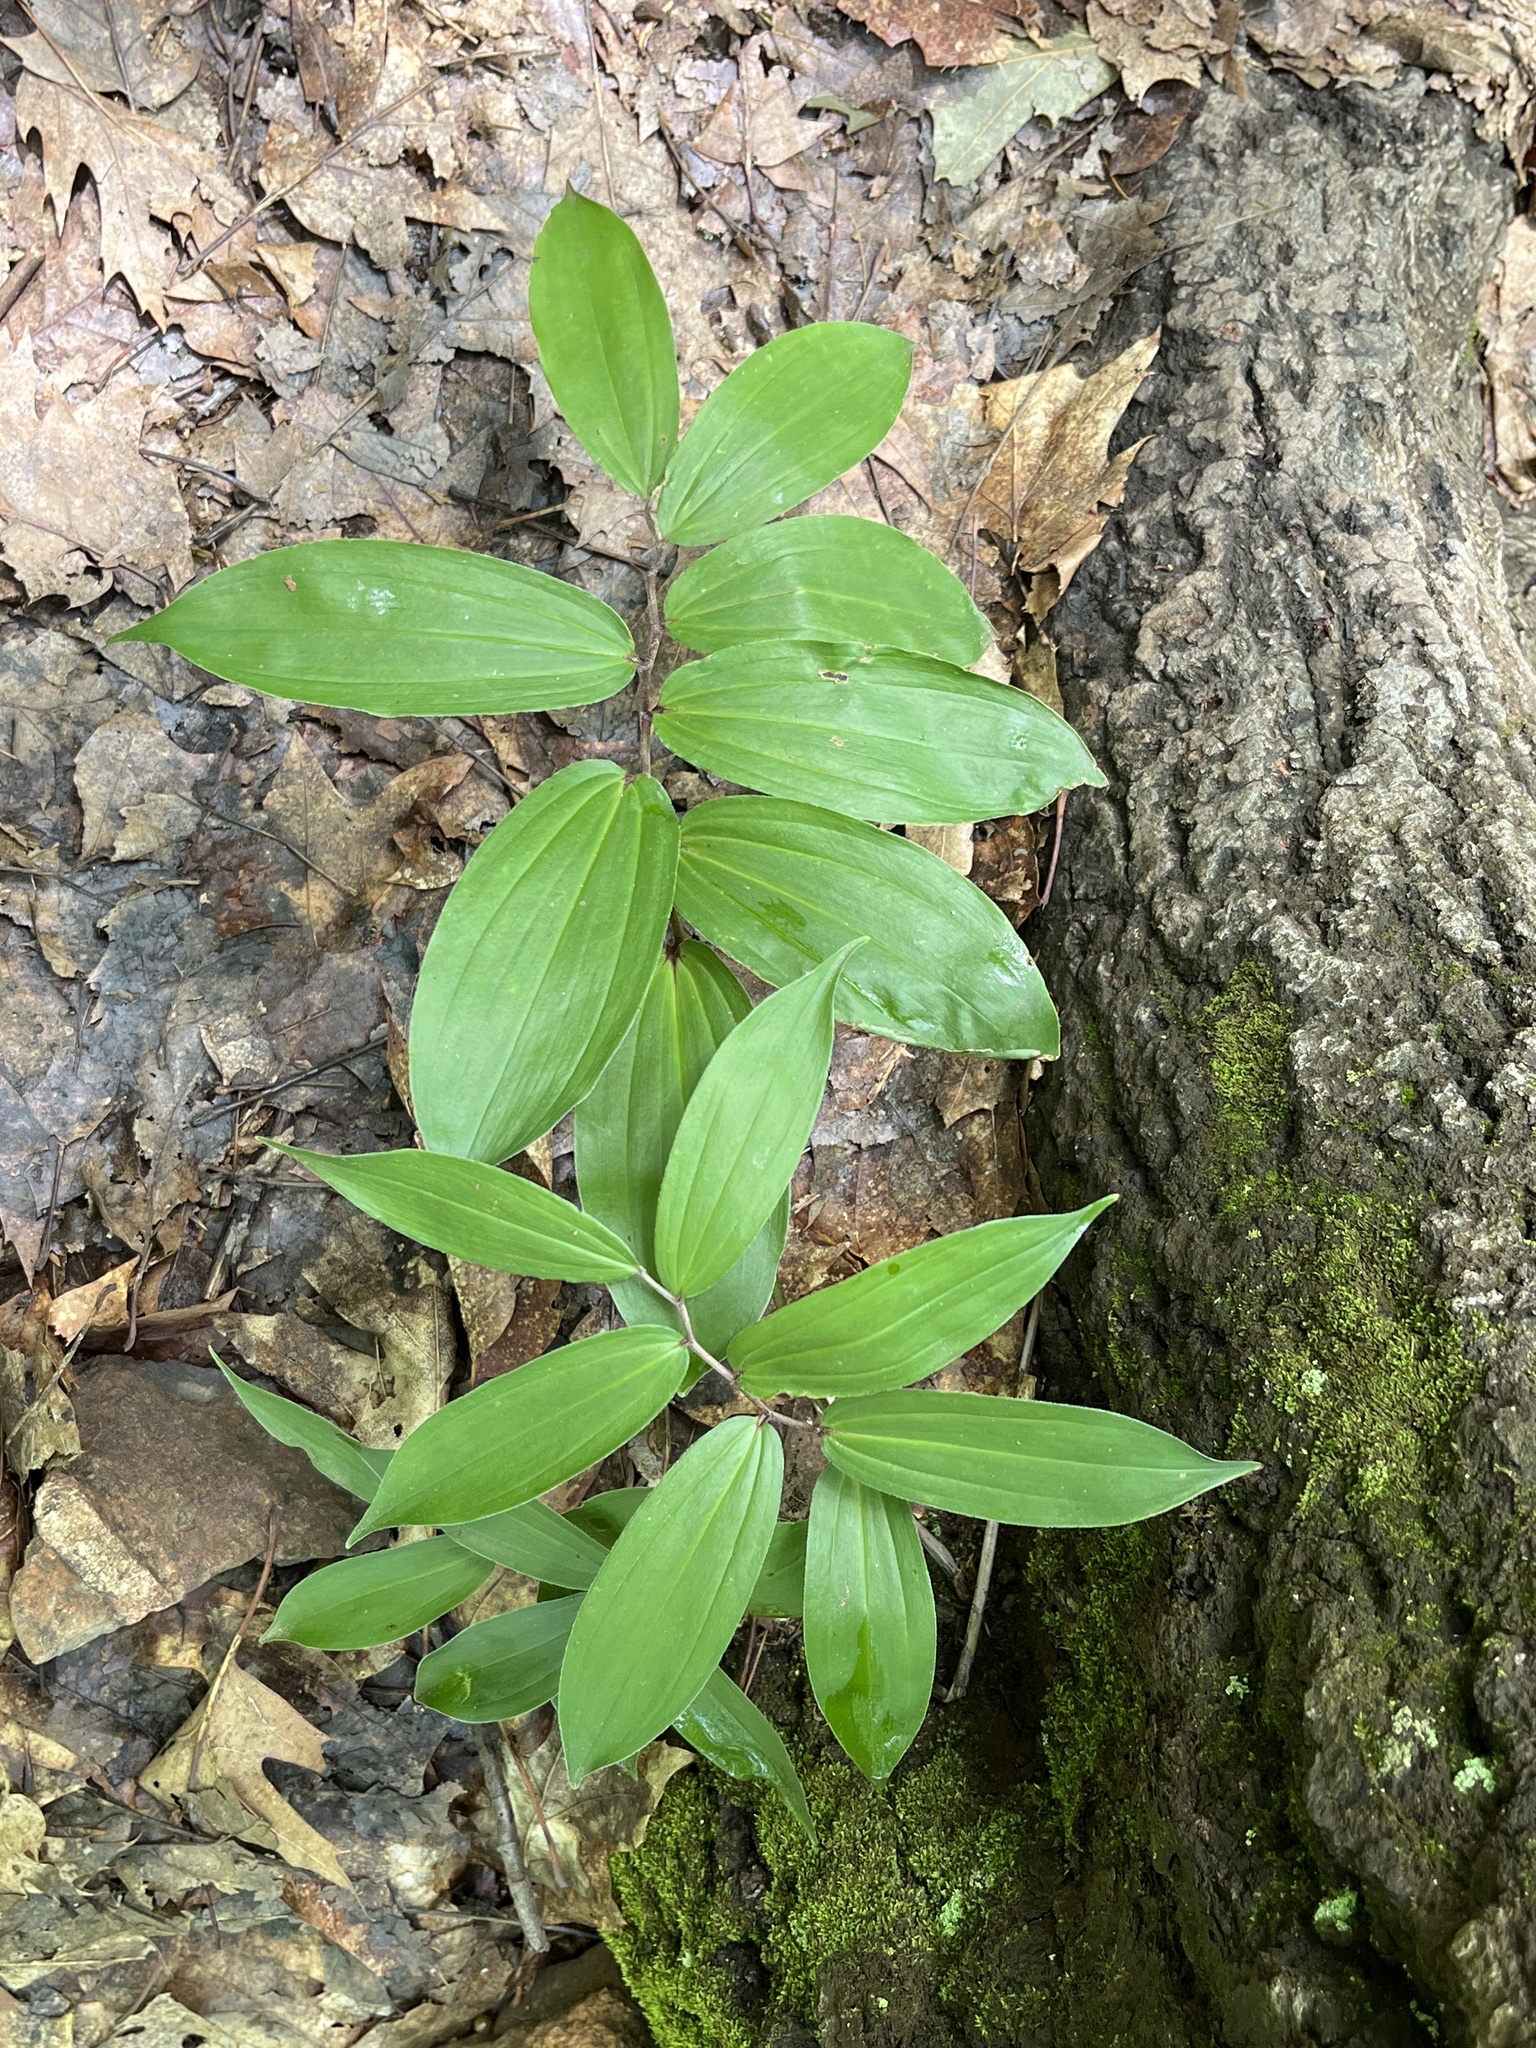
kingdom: Plantae
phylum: Tracheophyta
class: Liliopsida
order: Asparagales
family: Asparagaceae
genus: Maianthemum
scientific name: Maianthemum racemosum
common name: False spikenard
